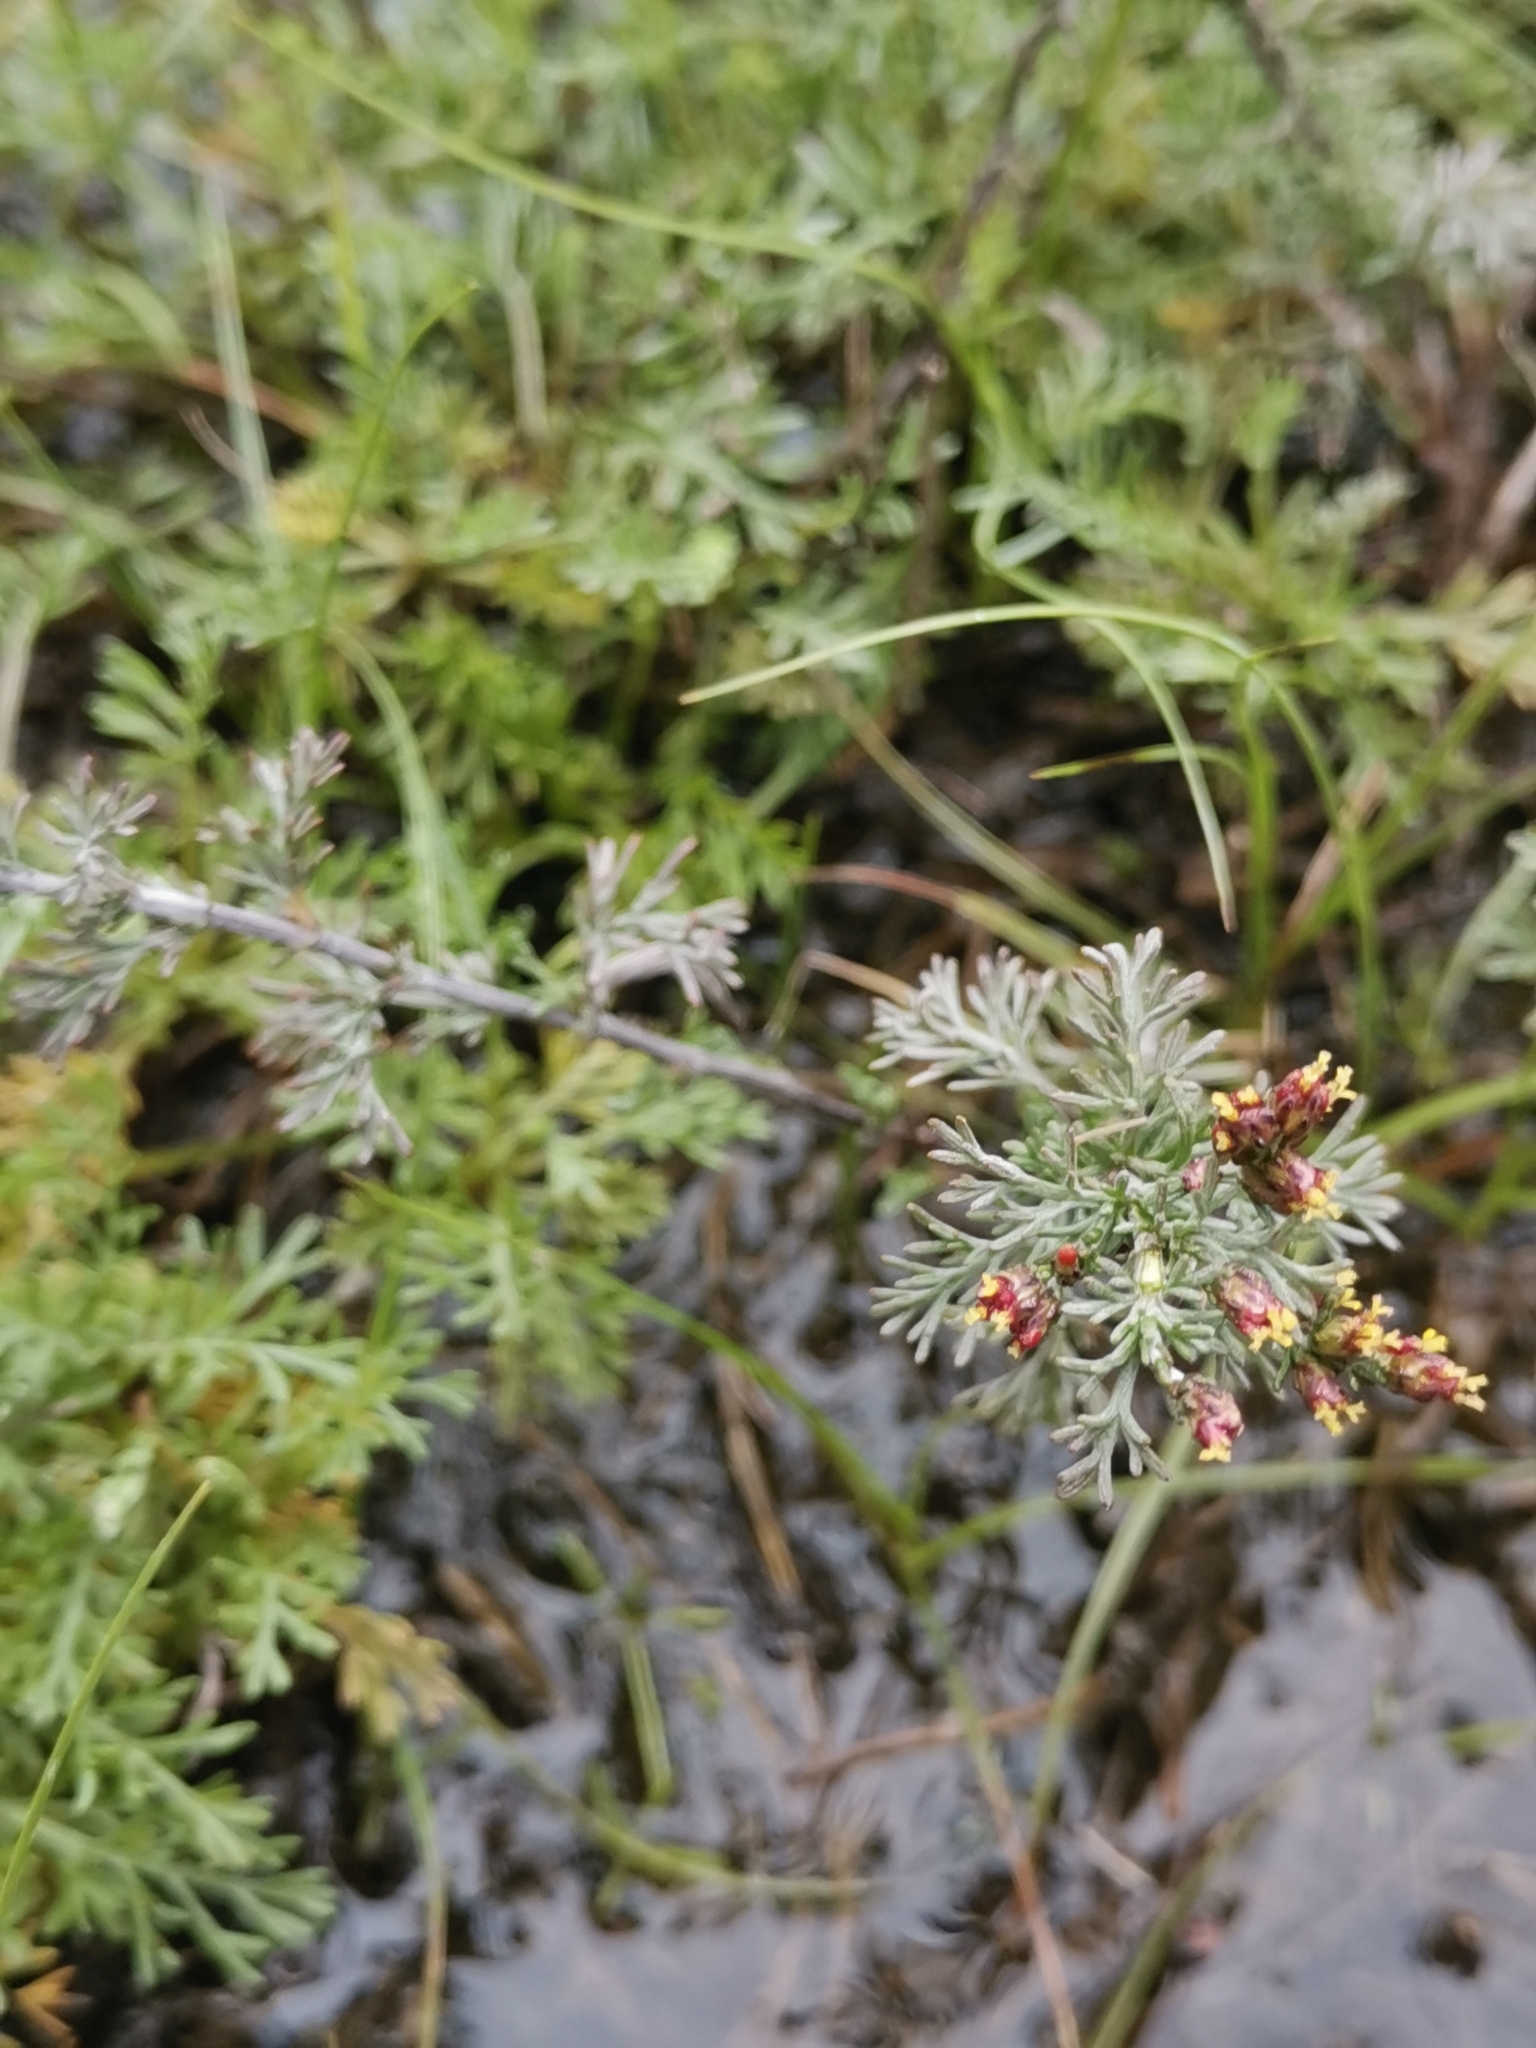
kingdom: Plantae
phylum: Tracheophyta
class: Magnoliopsida
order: Asterales
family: Asteraceae
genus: Artemisia
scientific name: Artemisia santonicum
